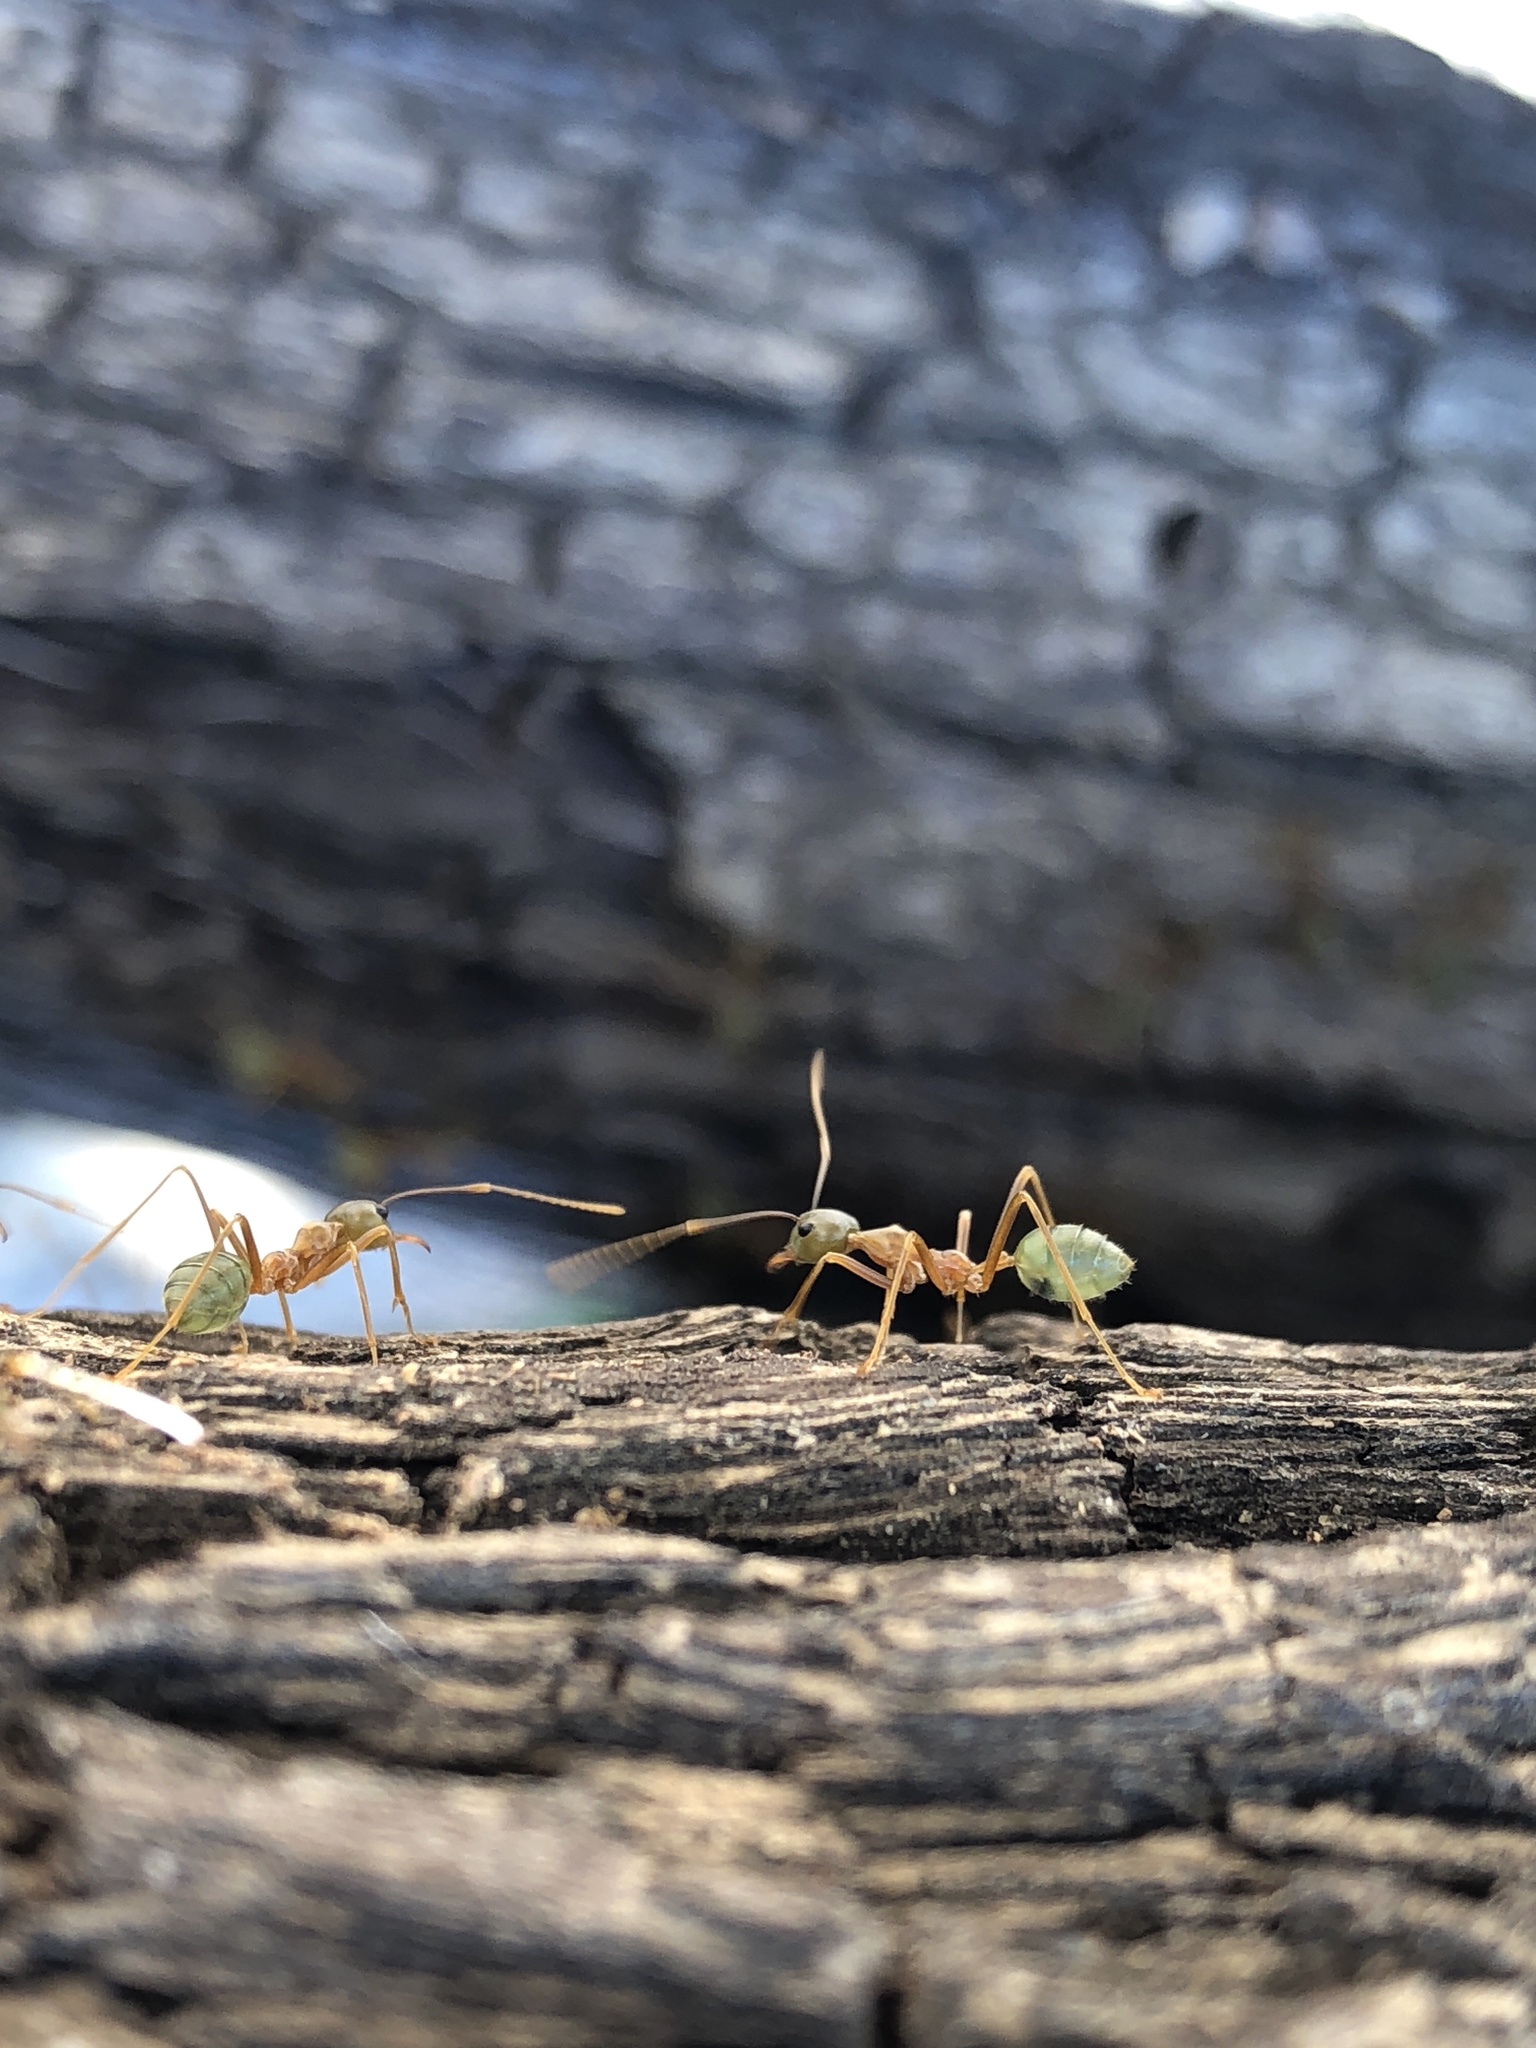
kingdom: Animalia
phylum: Arthropoda
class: Insecta
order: Hymenoptera
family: Formicidae
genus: Oecophylla
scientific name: Oecophylla smaragdina
